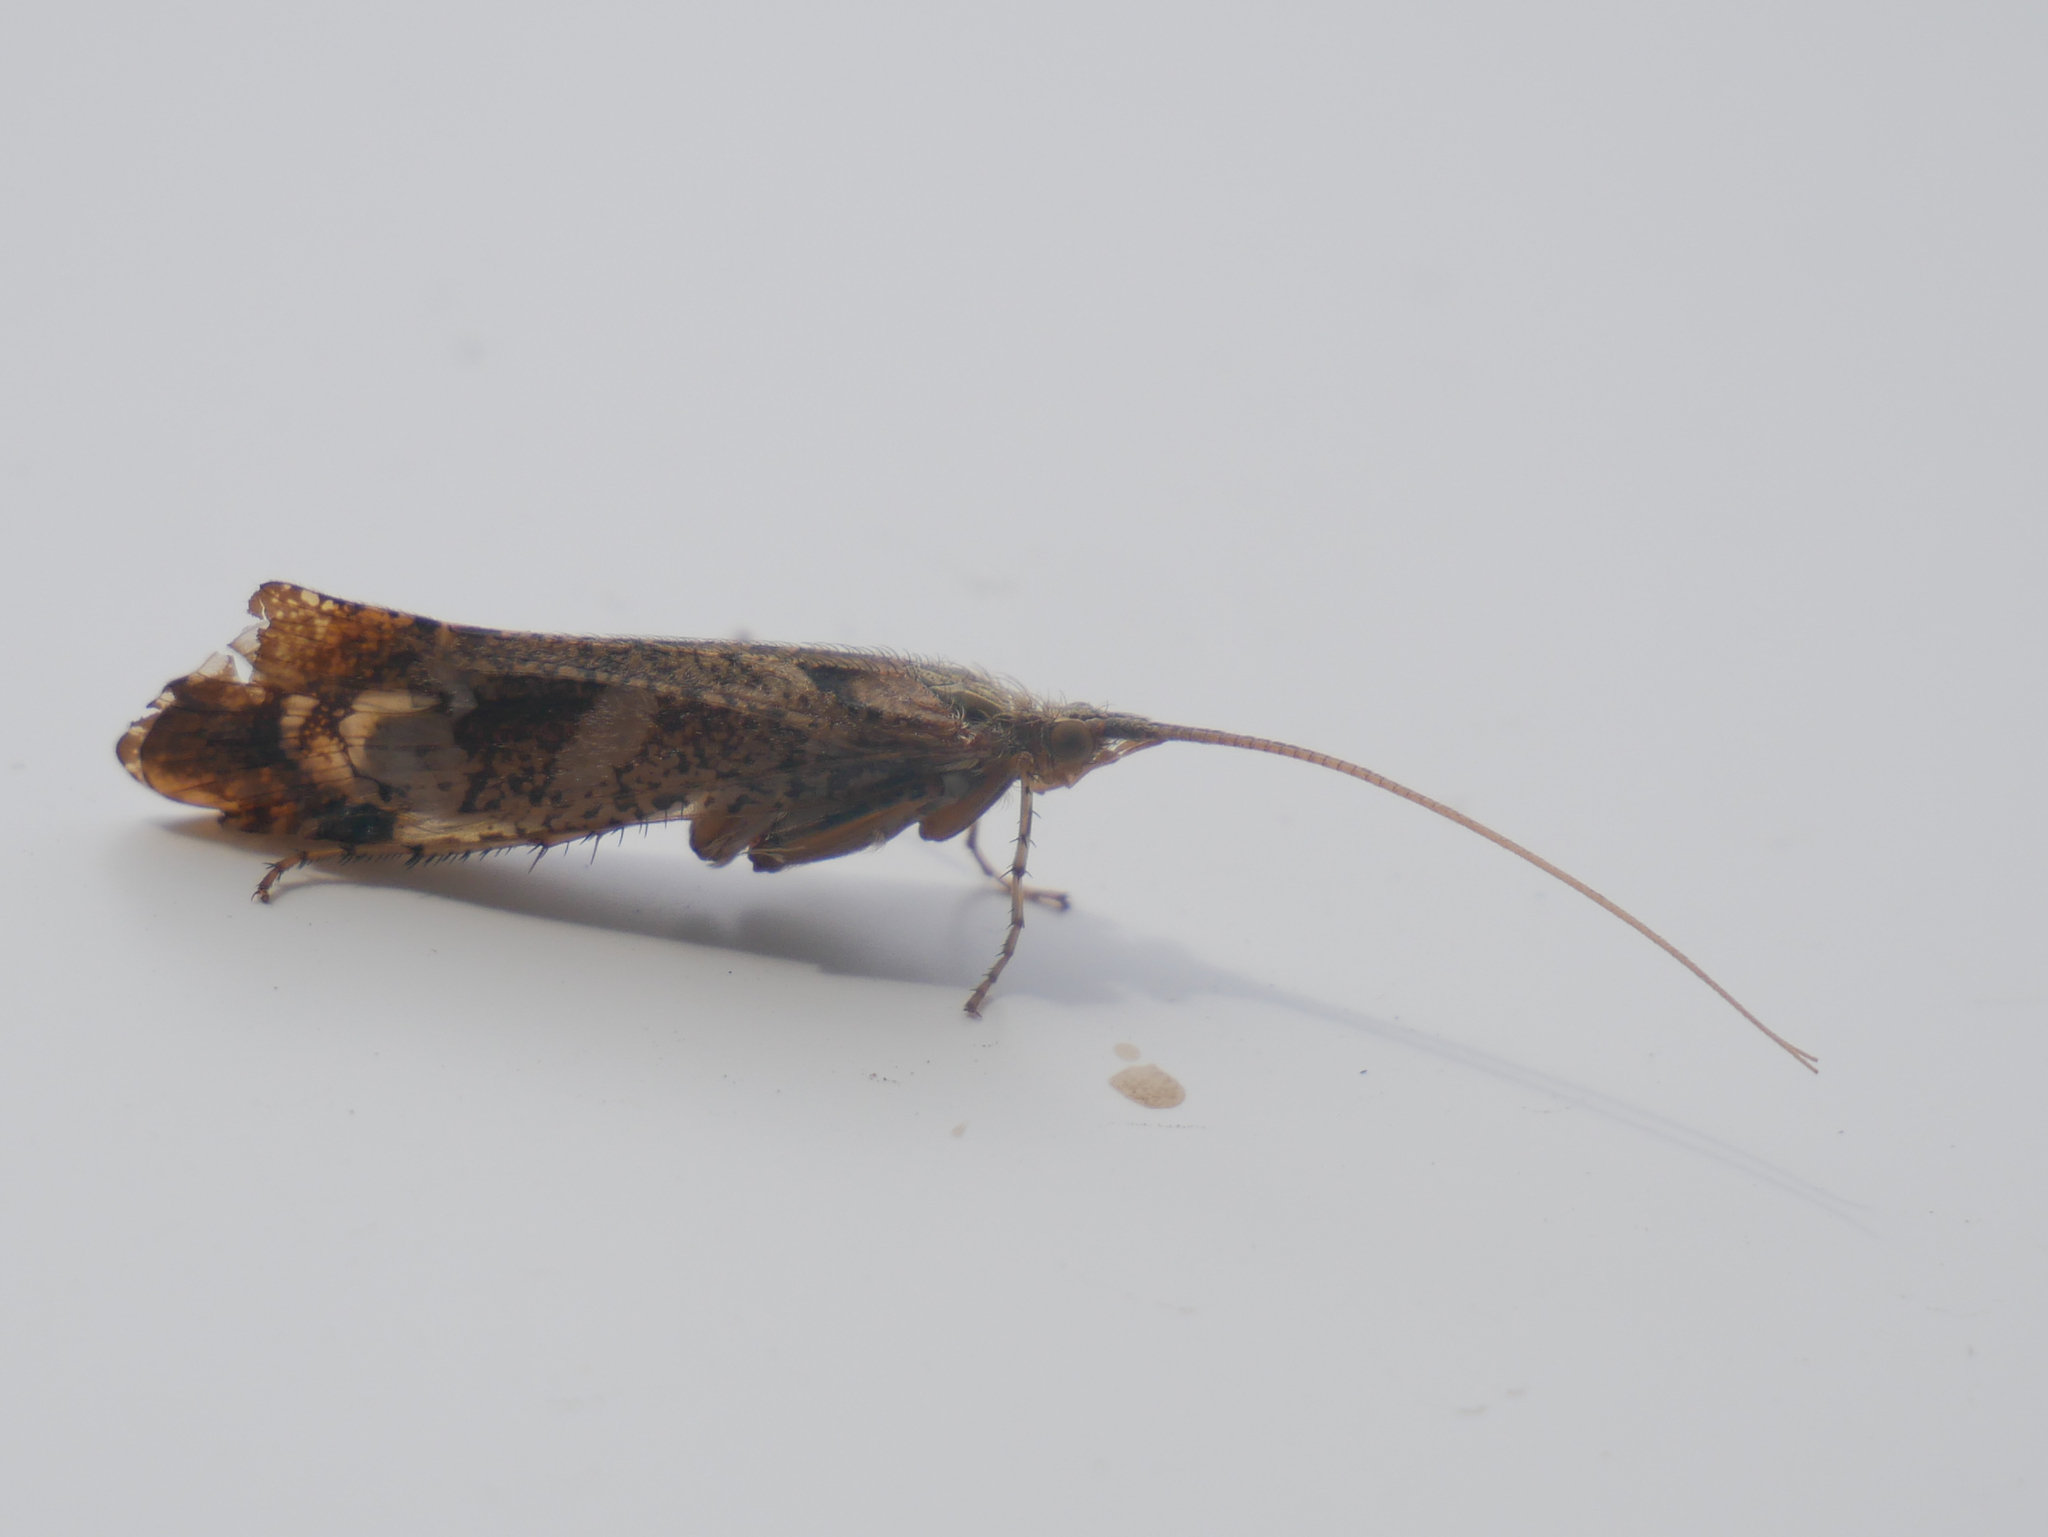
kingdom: Animalia
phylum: Arthropoda
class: Insecta
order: Trichoptera
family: Limnephilidae
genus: Glyphotaelius
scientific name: Glyphotaelius pellucidus
